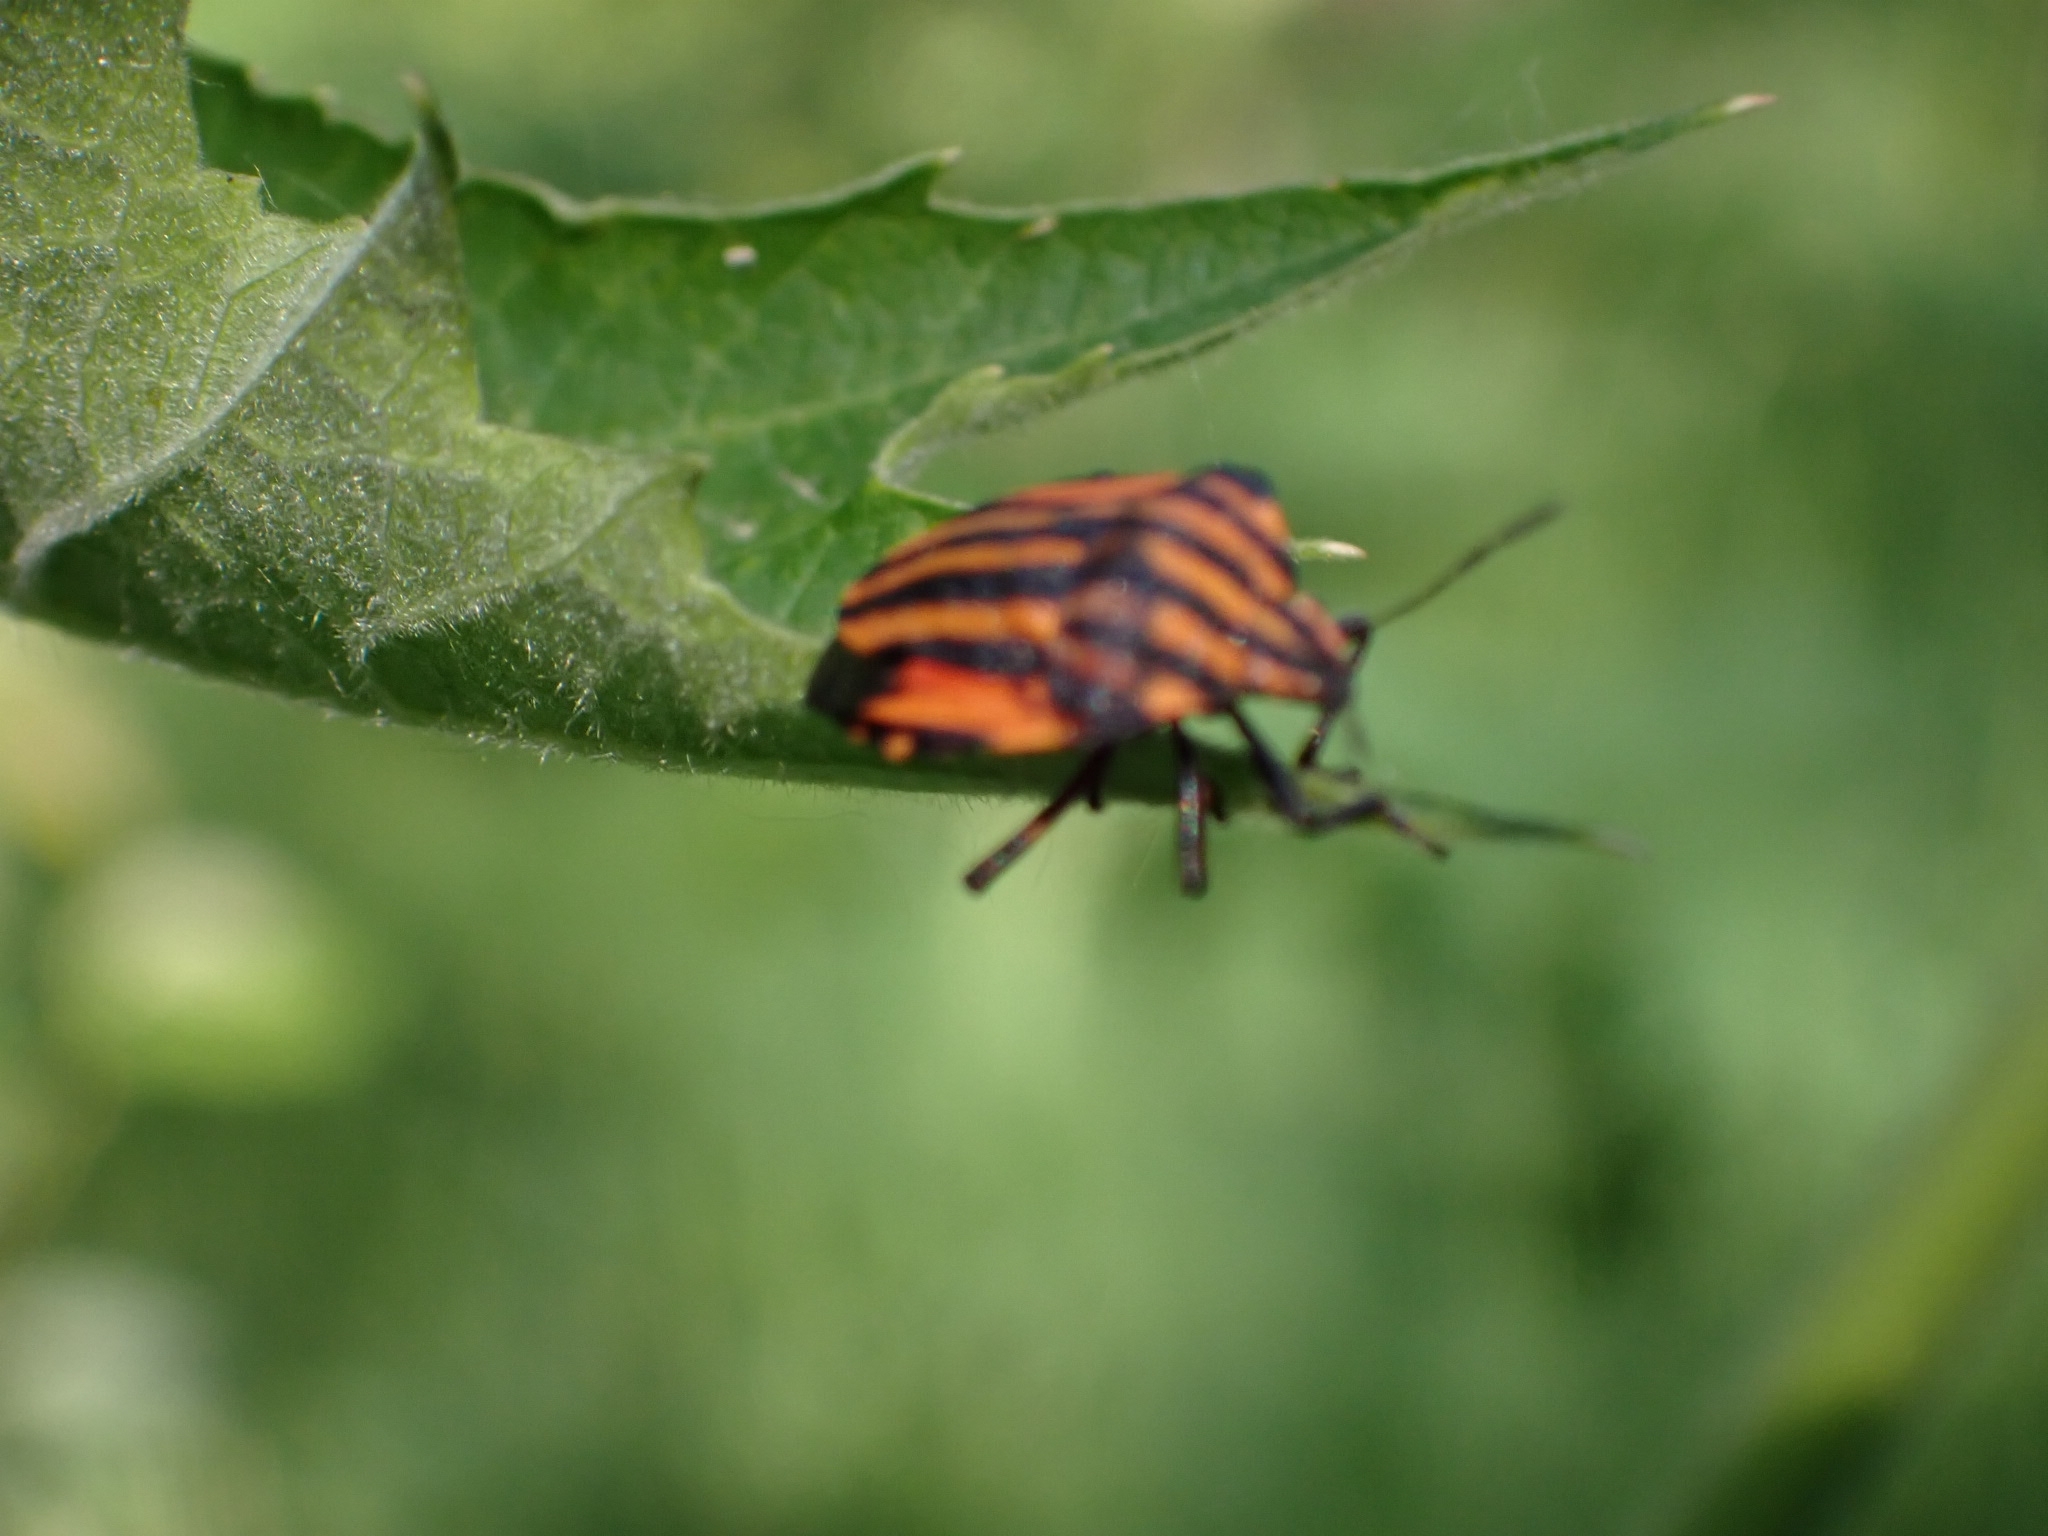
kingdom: Animalia
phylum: Arthropoda
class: Insecta
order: Hemiptera
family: Pentatomidae
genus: Graphosoma
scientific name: Graphosoma italicum
